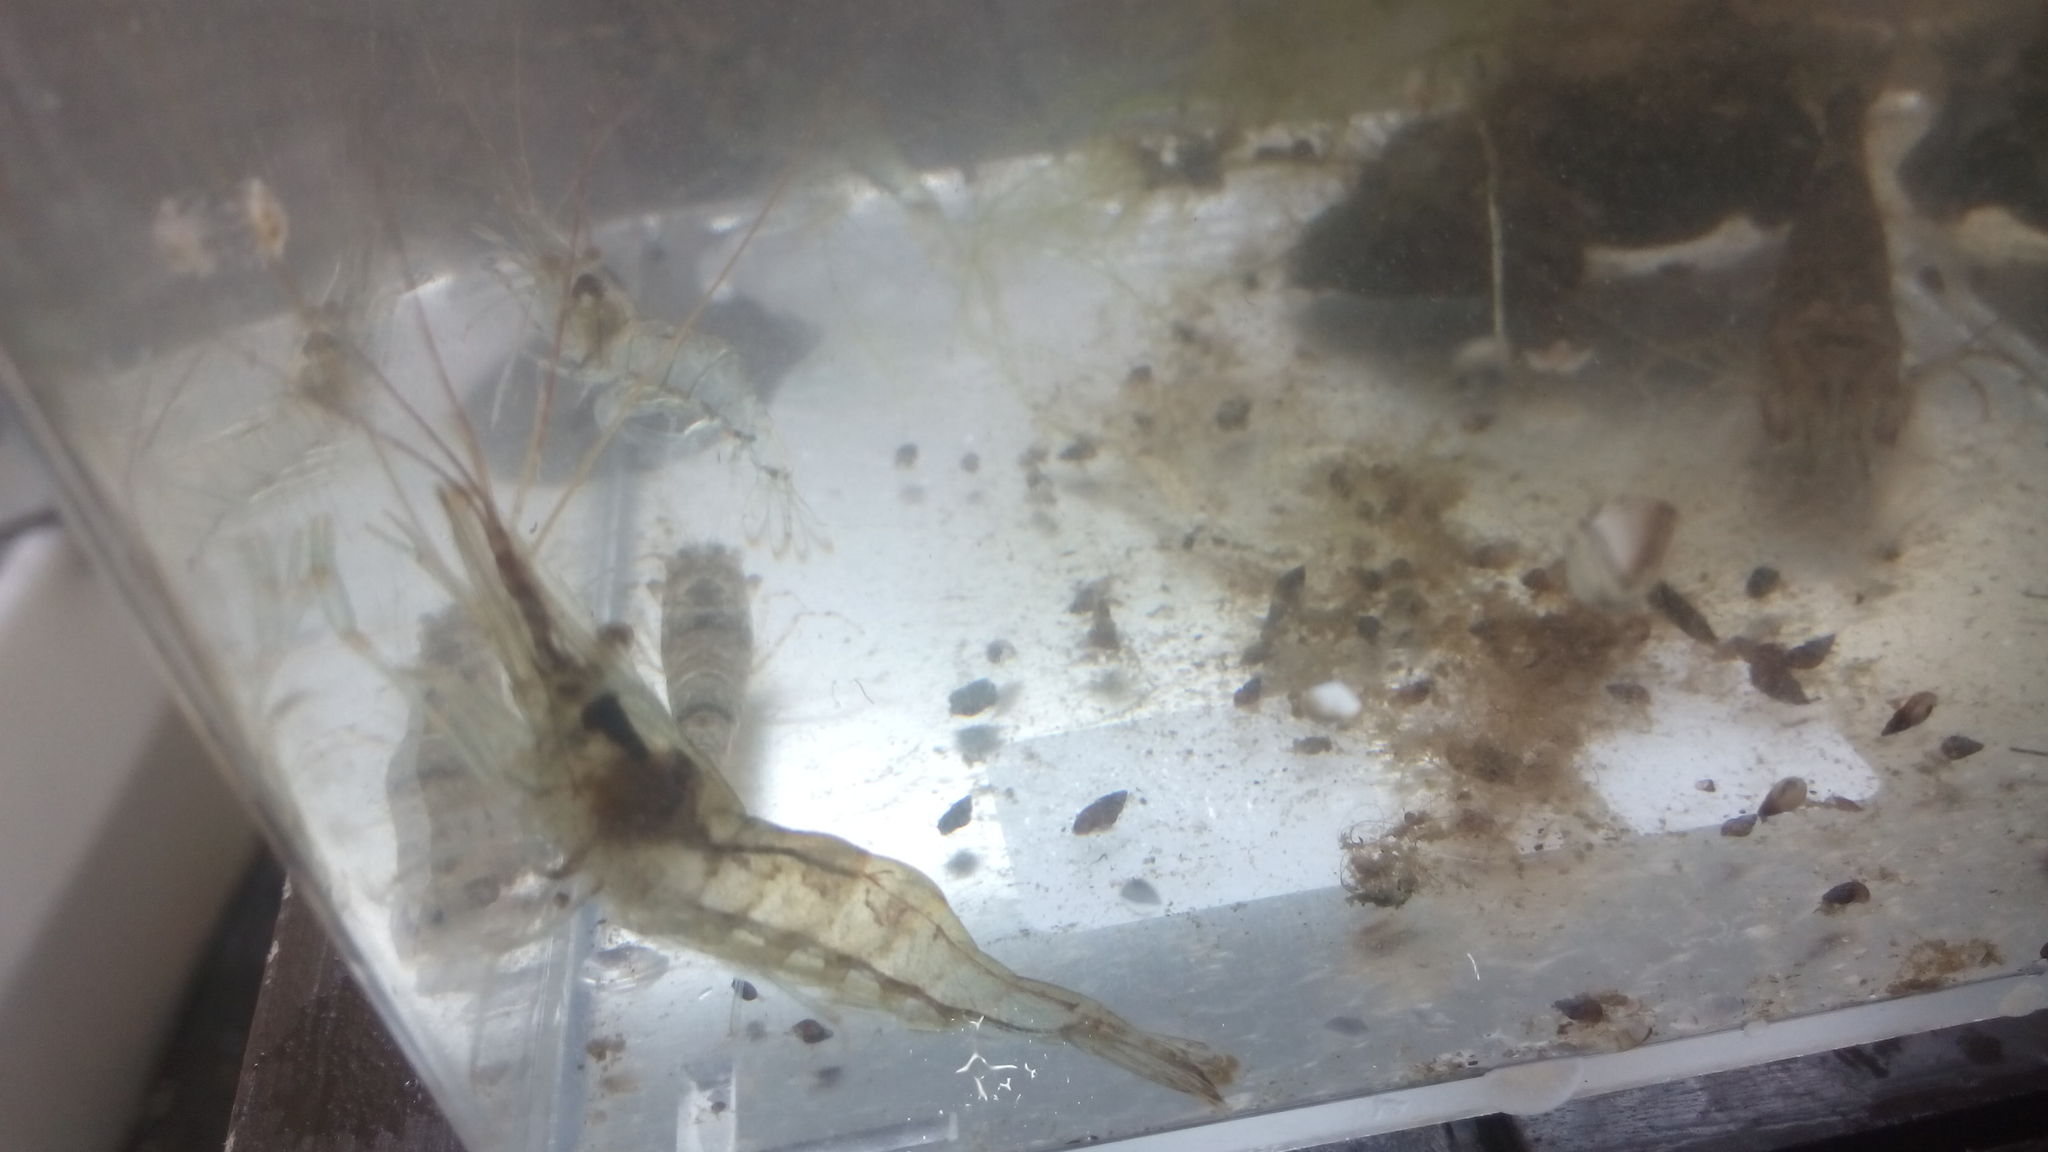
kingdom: Animalia
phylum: Arthropoda
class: Malacostraca
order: Decapoda
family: Palaemonidae
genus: Palaemon
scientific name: Palaemon adspersus
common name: Baltic prawn
